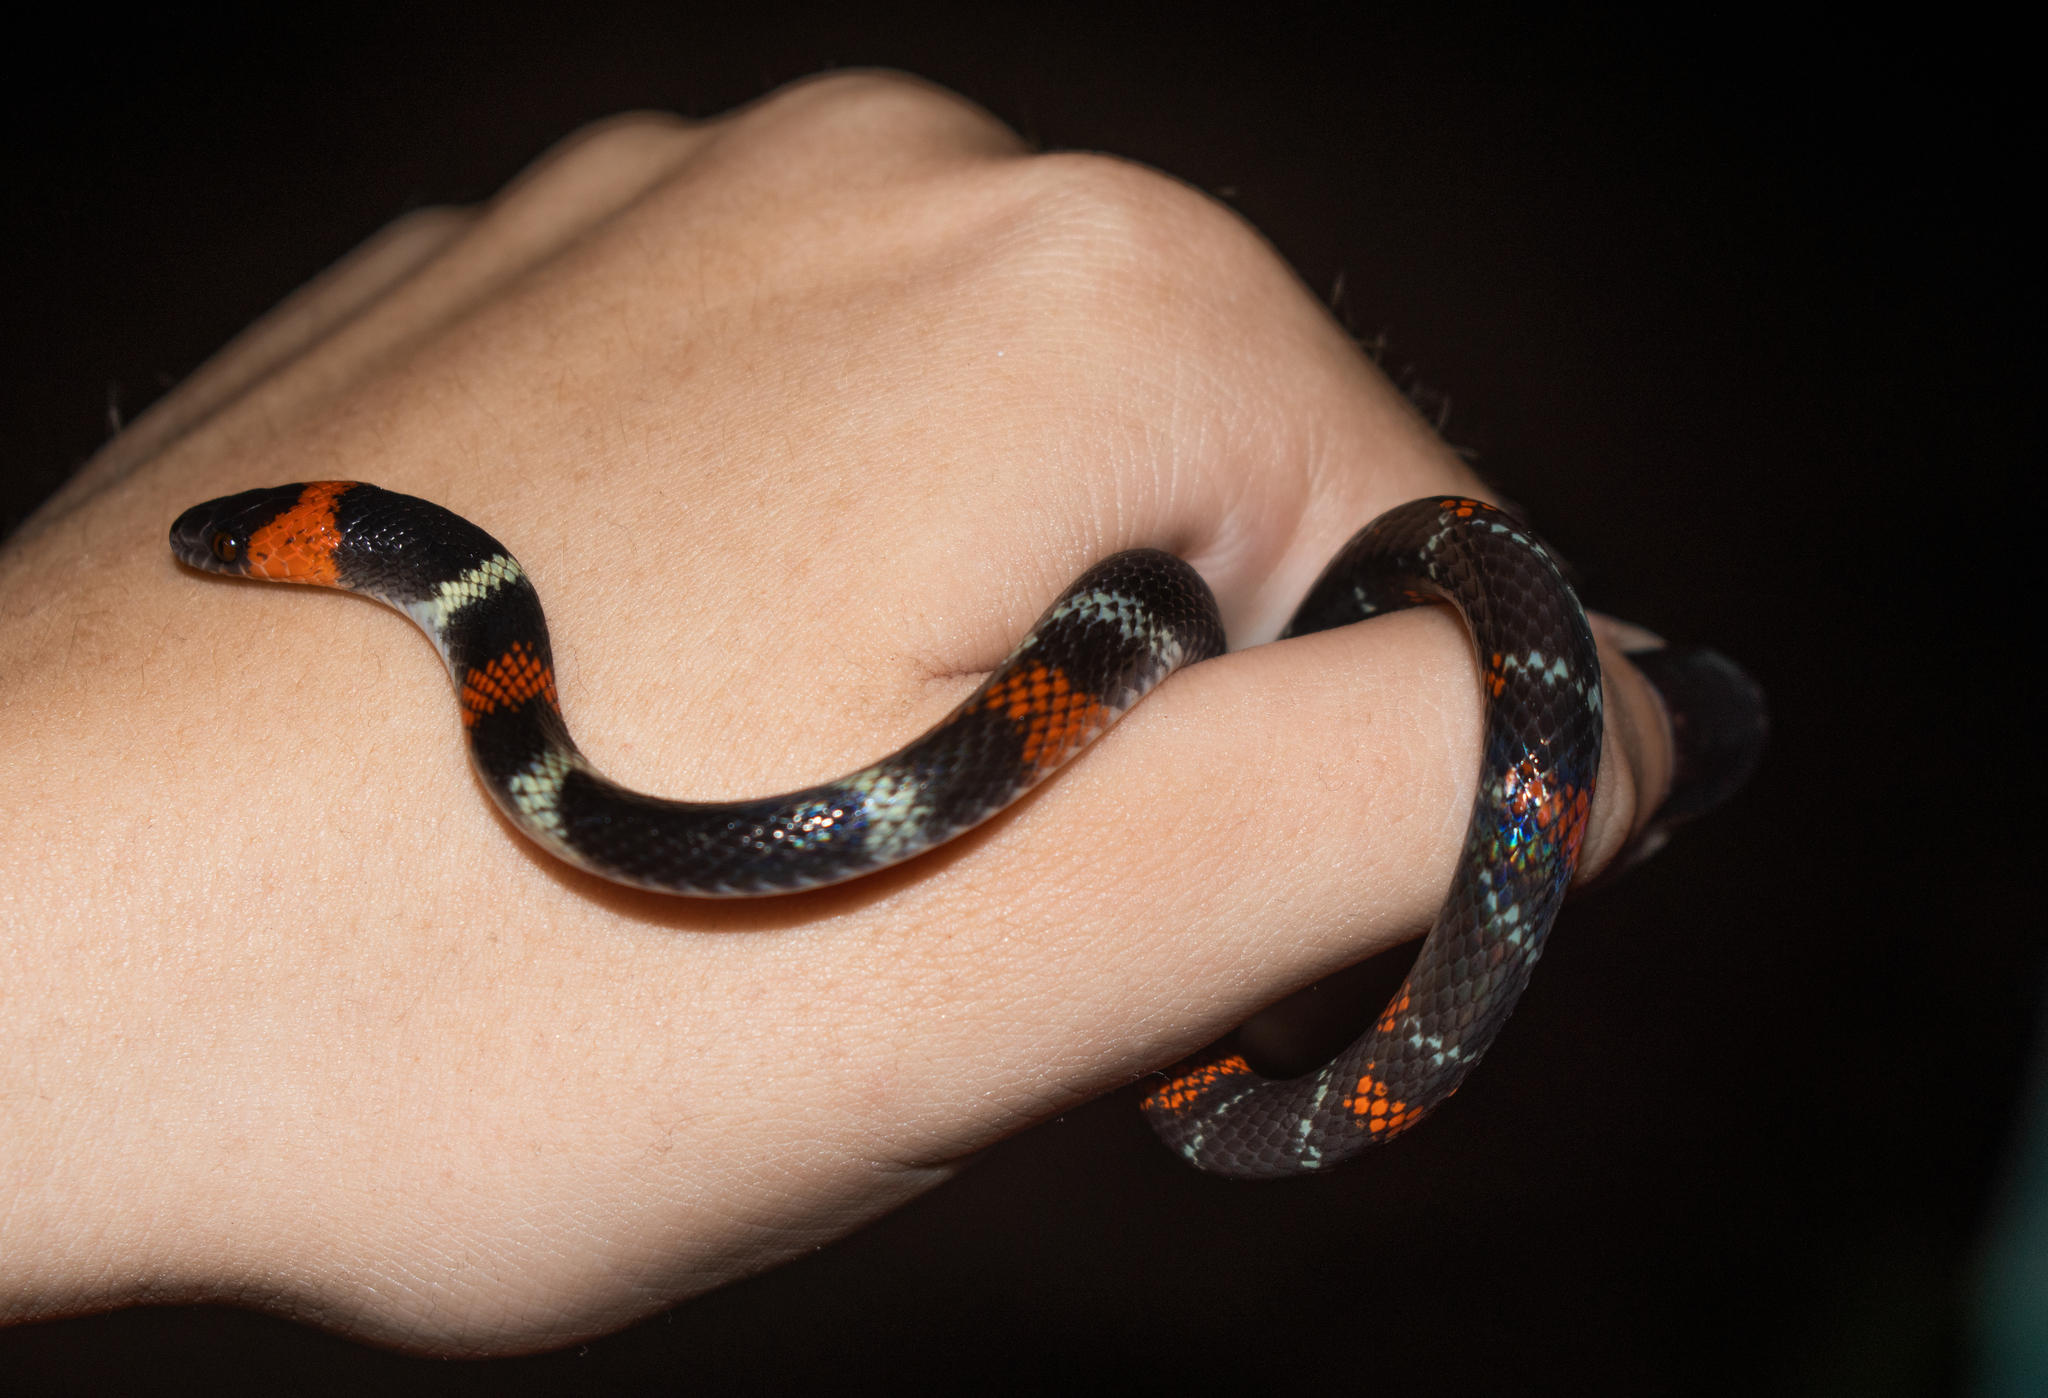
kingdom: Animalia
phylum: Chordata
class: Squamata
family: Colubridae
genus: Oxyrhopus
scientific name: Oxyrhopus melanogenys
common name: Tschudi's false coral snake
